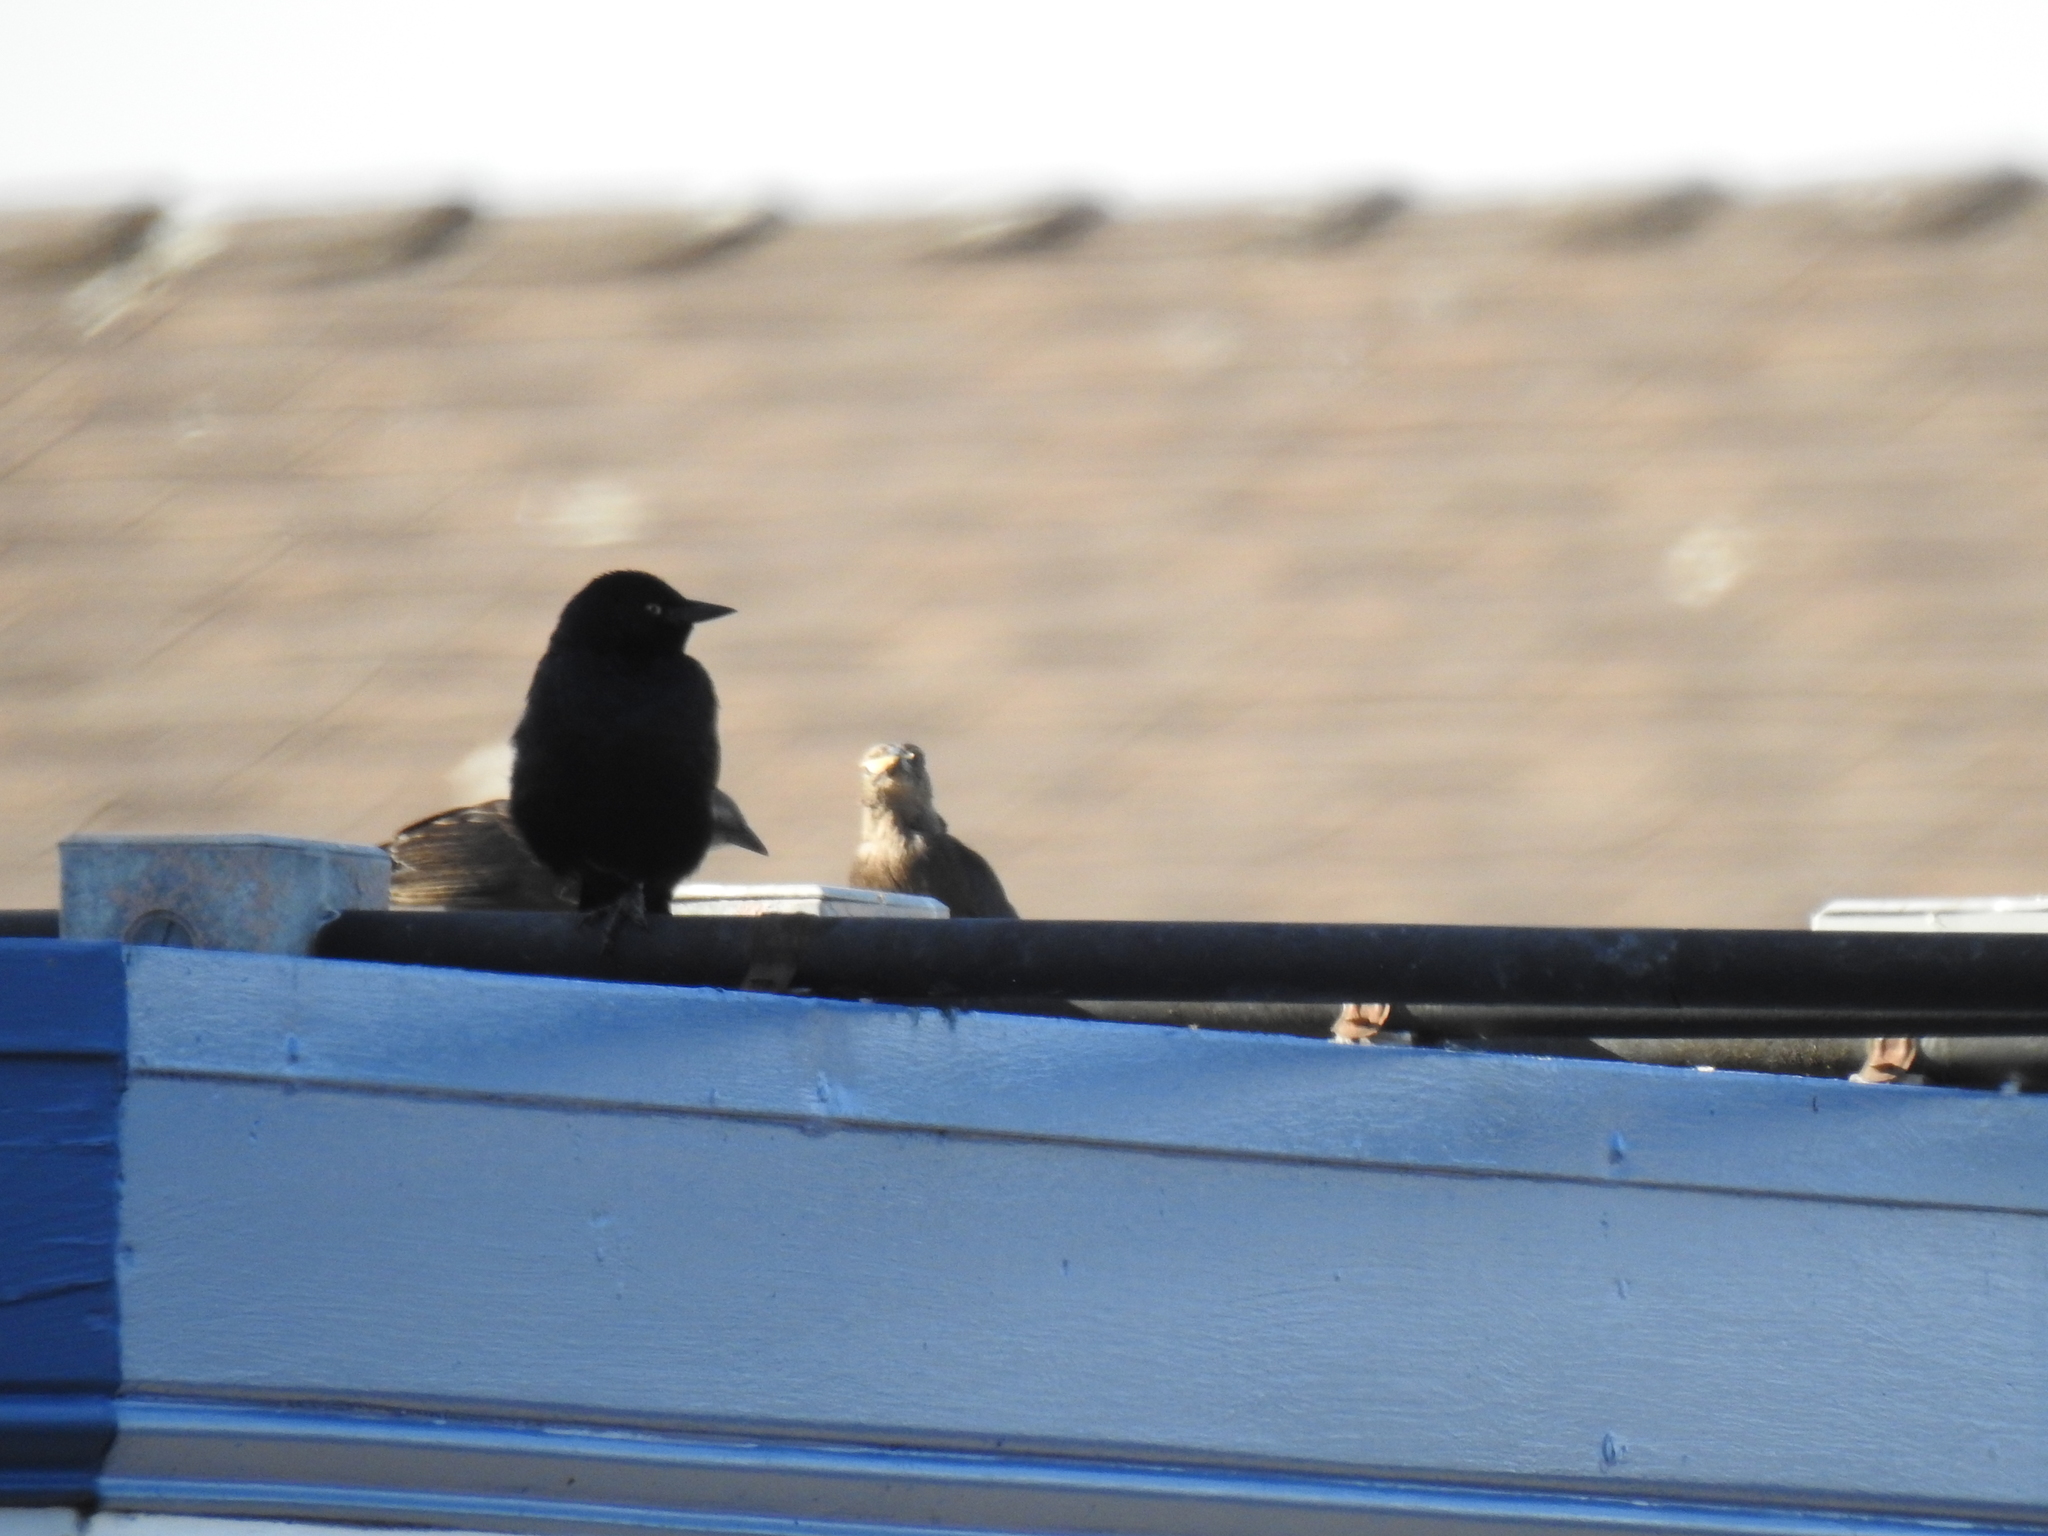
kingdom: Animalia
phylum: Chordata
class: Aves
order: Passeriformes
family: Icteridae
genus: Euphagus
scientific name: Euphagus cyanocephalus
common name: Brewer's blackbird
